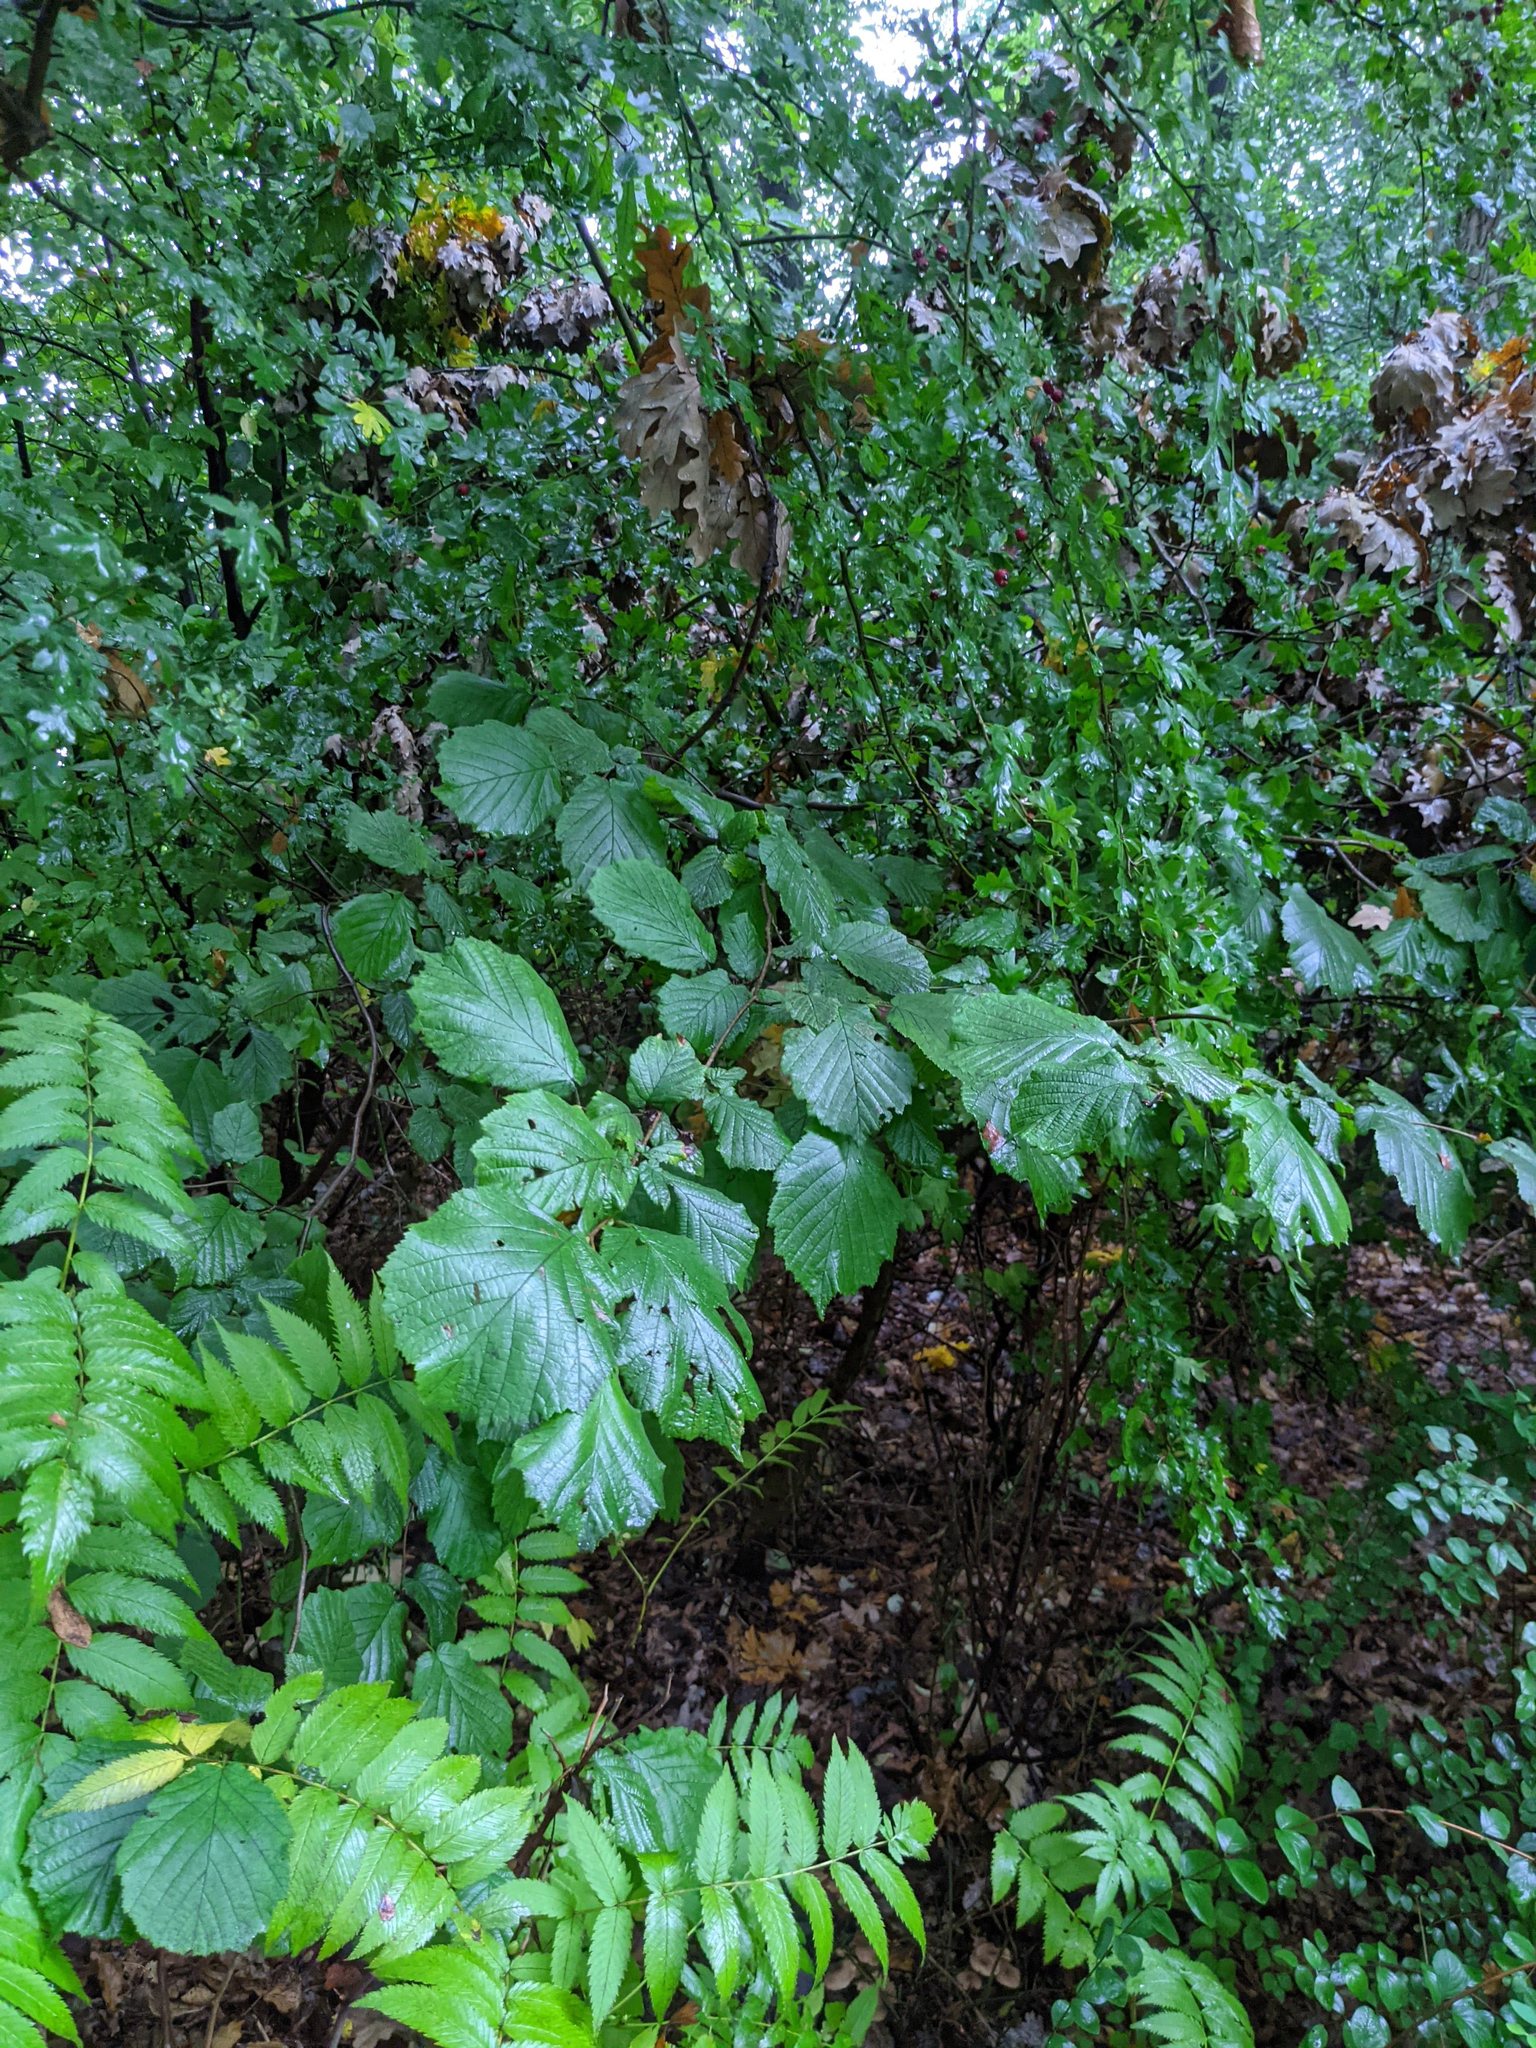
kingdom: Plantae
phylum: Tracheophyta
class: Magnoliopsida
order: Fagales
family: Betulaceae
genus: Corylus
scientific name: Corylus avellana
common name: European hazel
